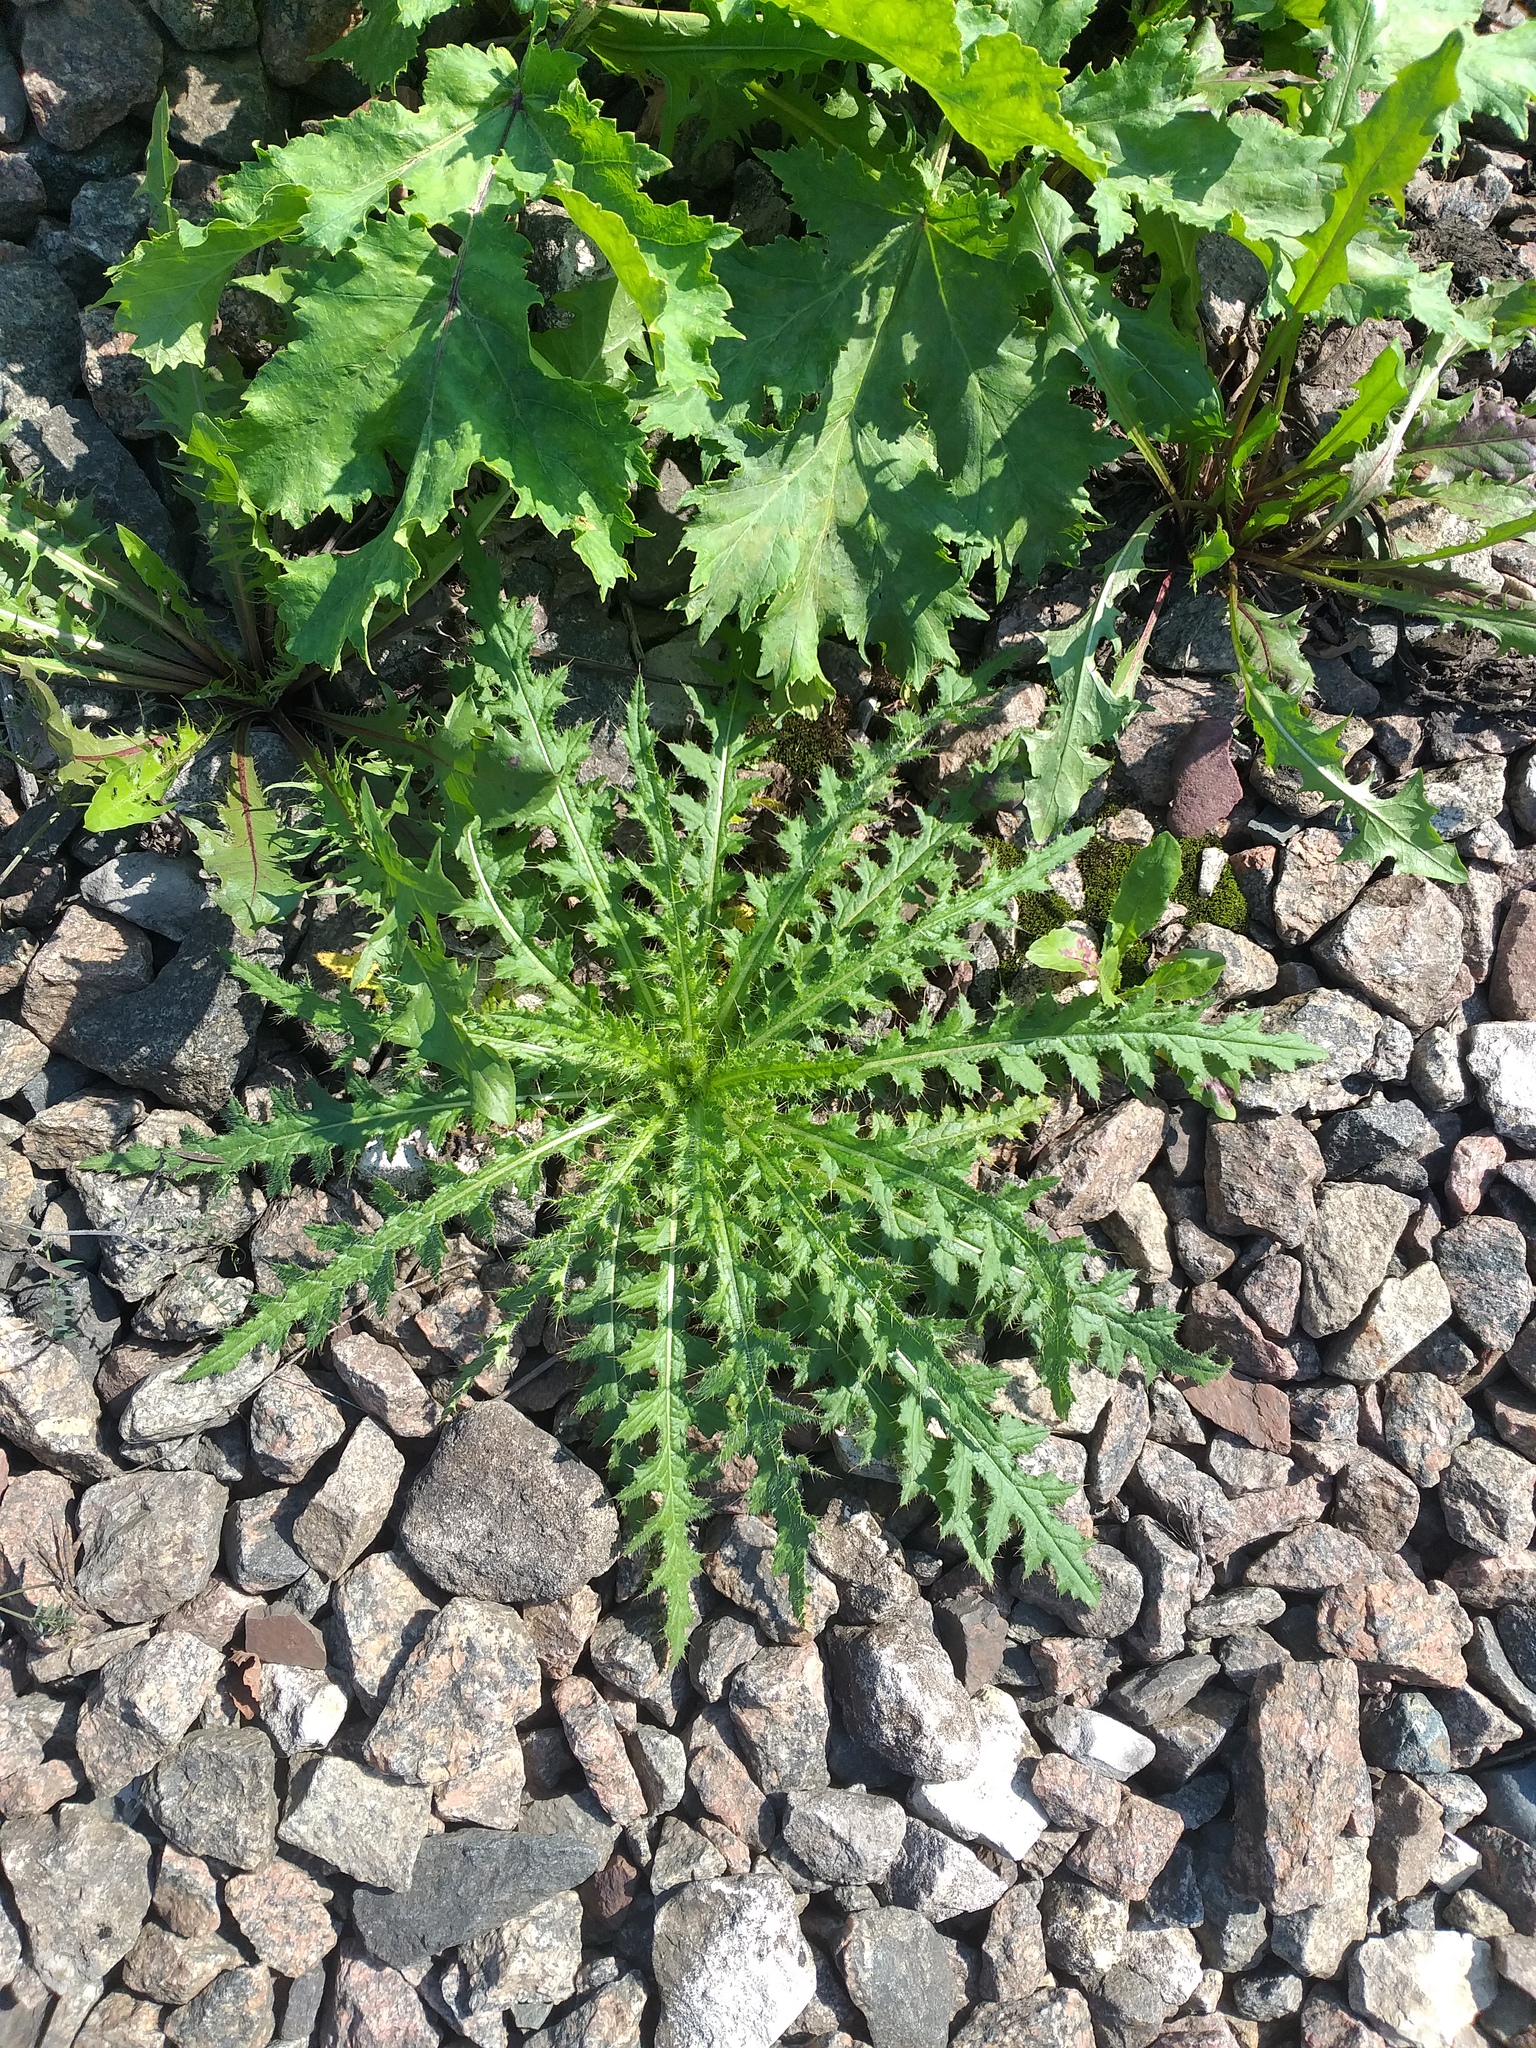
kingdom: Plantae
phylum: Tracheophyta
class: Magnoliopsida
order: Asterales
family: Asteraceae
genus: Cirsium
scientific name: Cirsium palustre
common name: Marsh thistle
